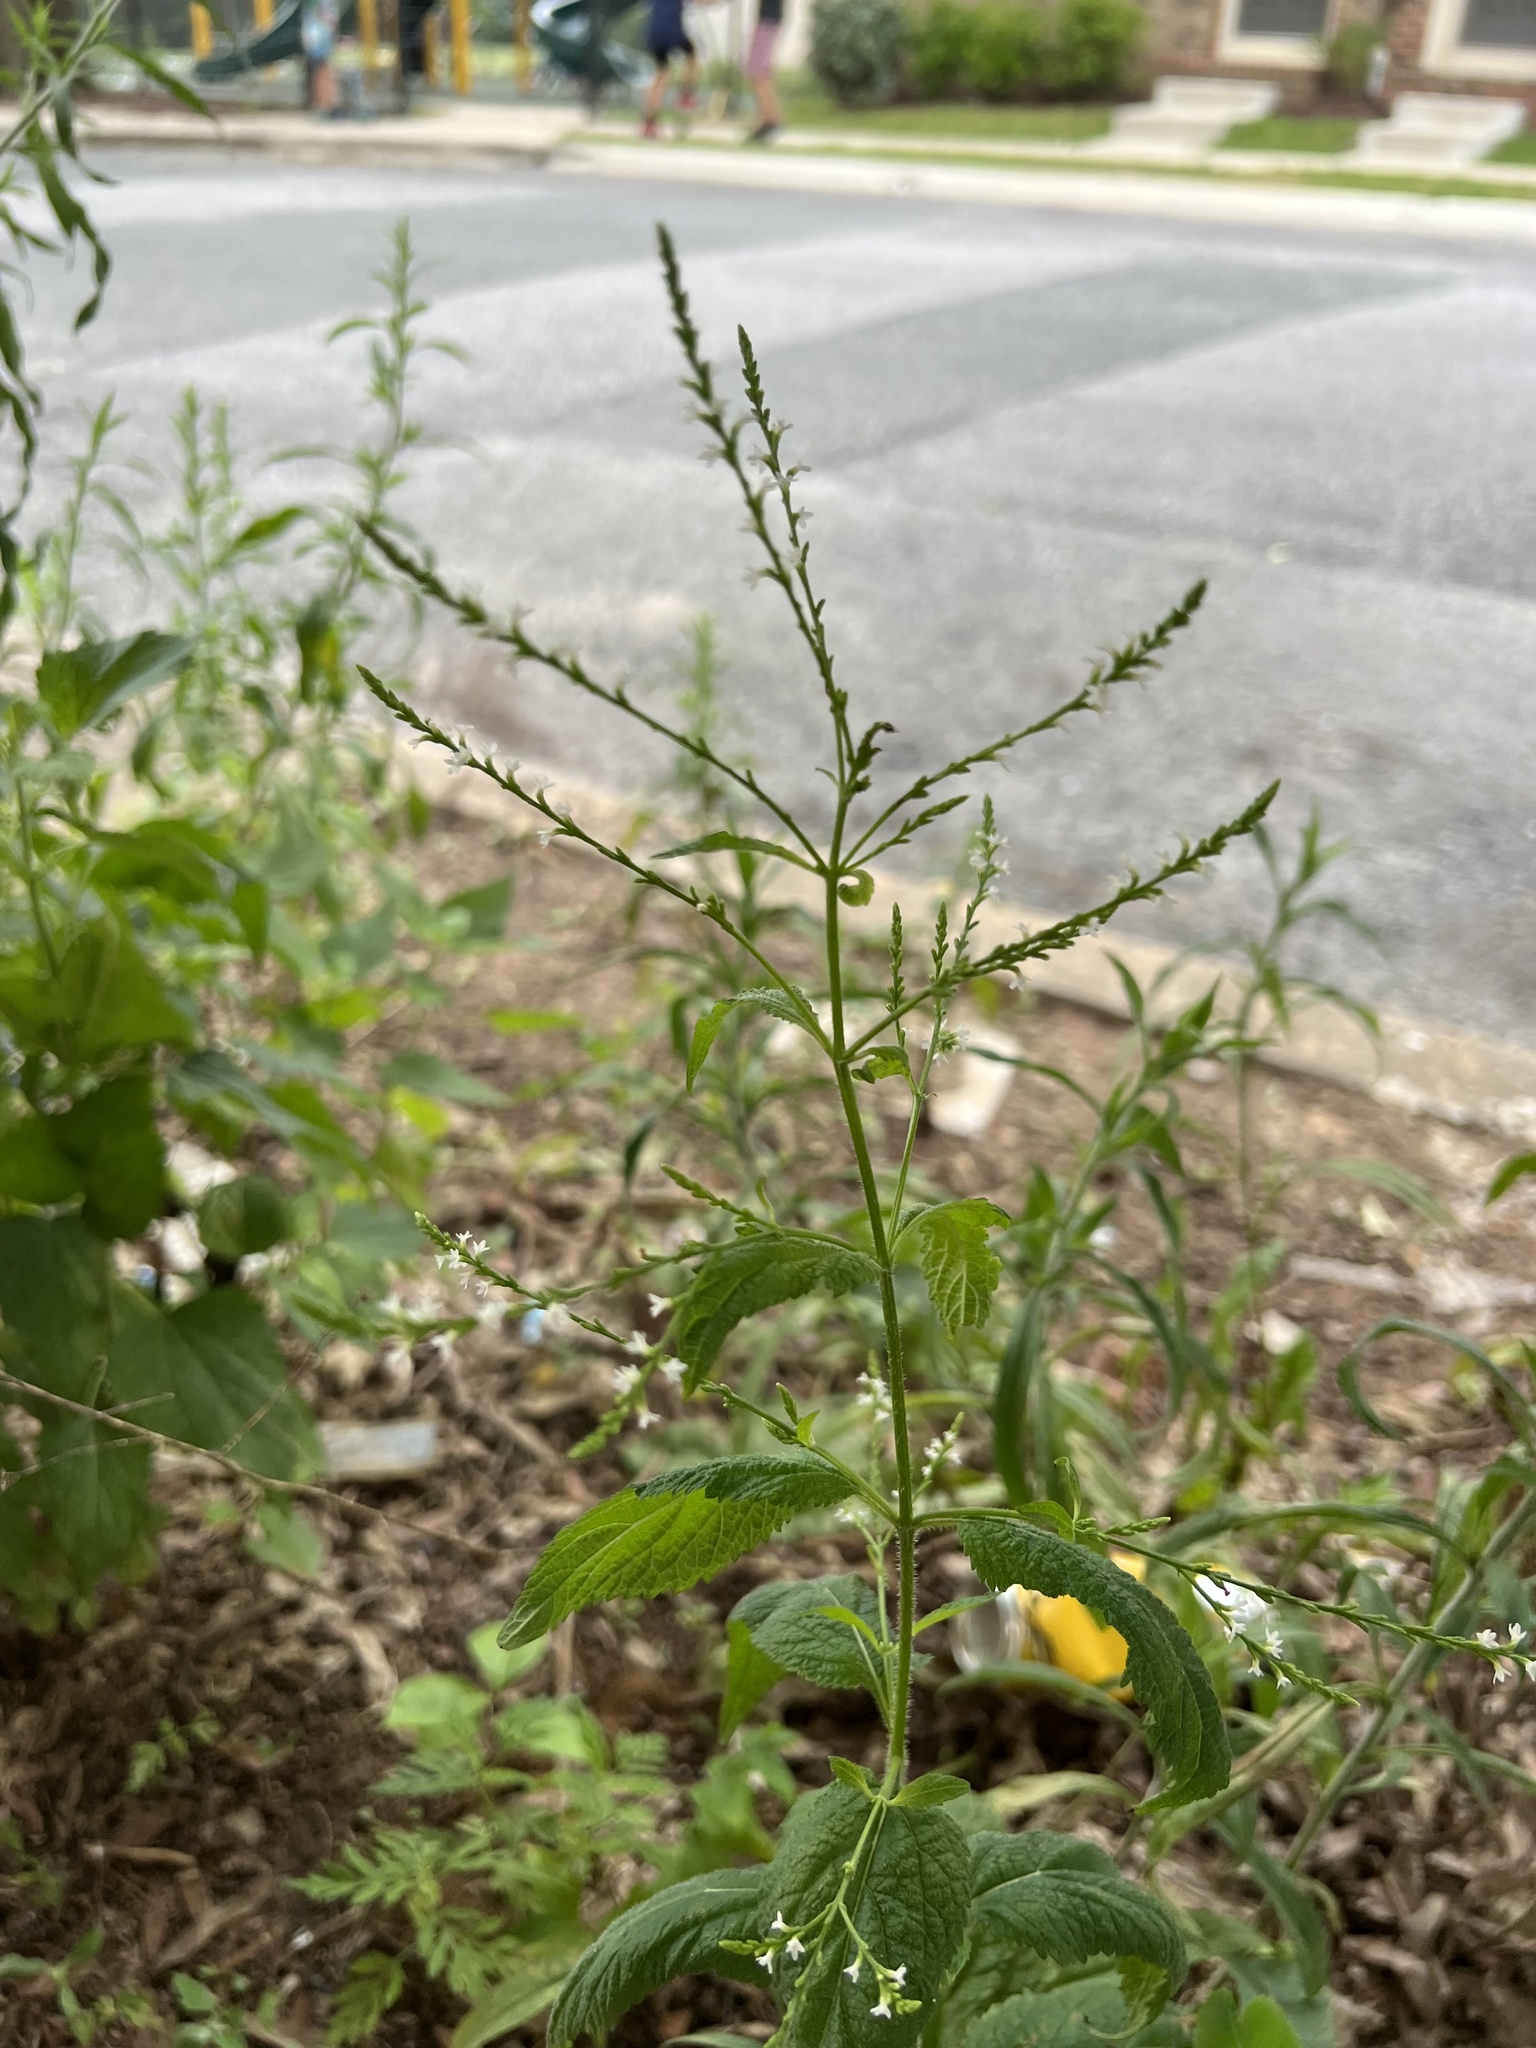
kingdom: Plantae
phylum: Tracheophyta
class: Magnoliopsida
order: Lamiales
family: Verbenaceae
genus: Verbena
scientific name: Verbena urticifolia
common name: Nettle-leaved vervain
